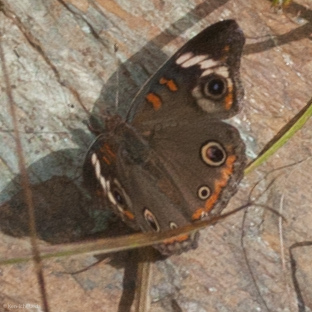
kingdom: Animalia
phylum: Arthropoda
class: Insecta
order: Lepidoptera
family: Nymphalidae
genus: Junonia
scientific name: Junonia coenia
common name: Common buckeye
